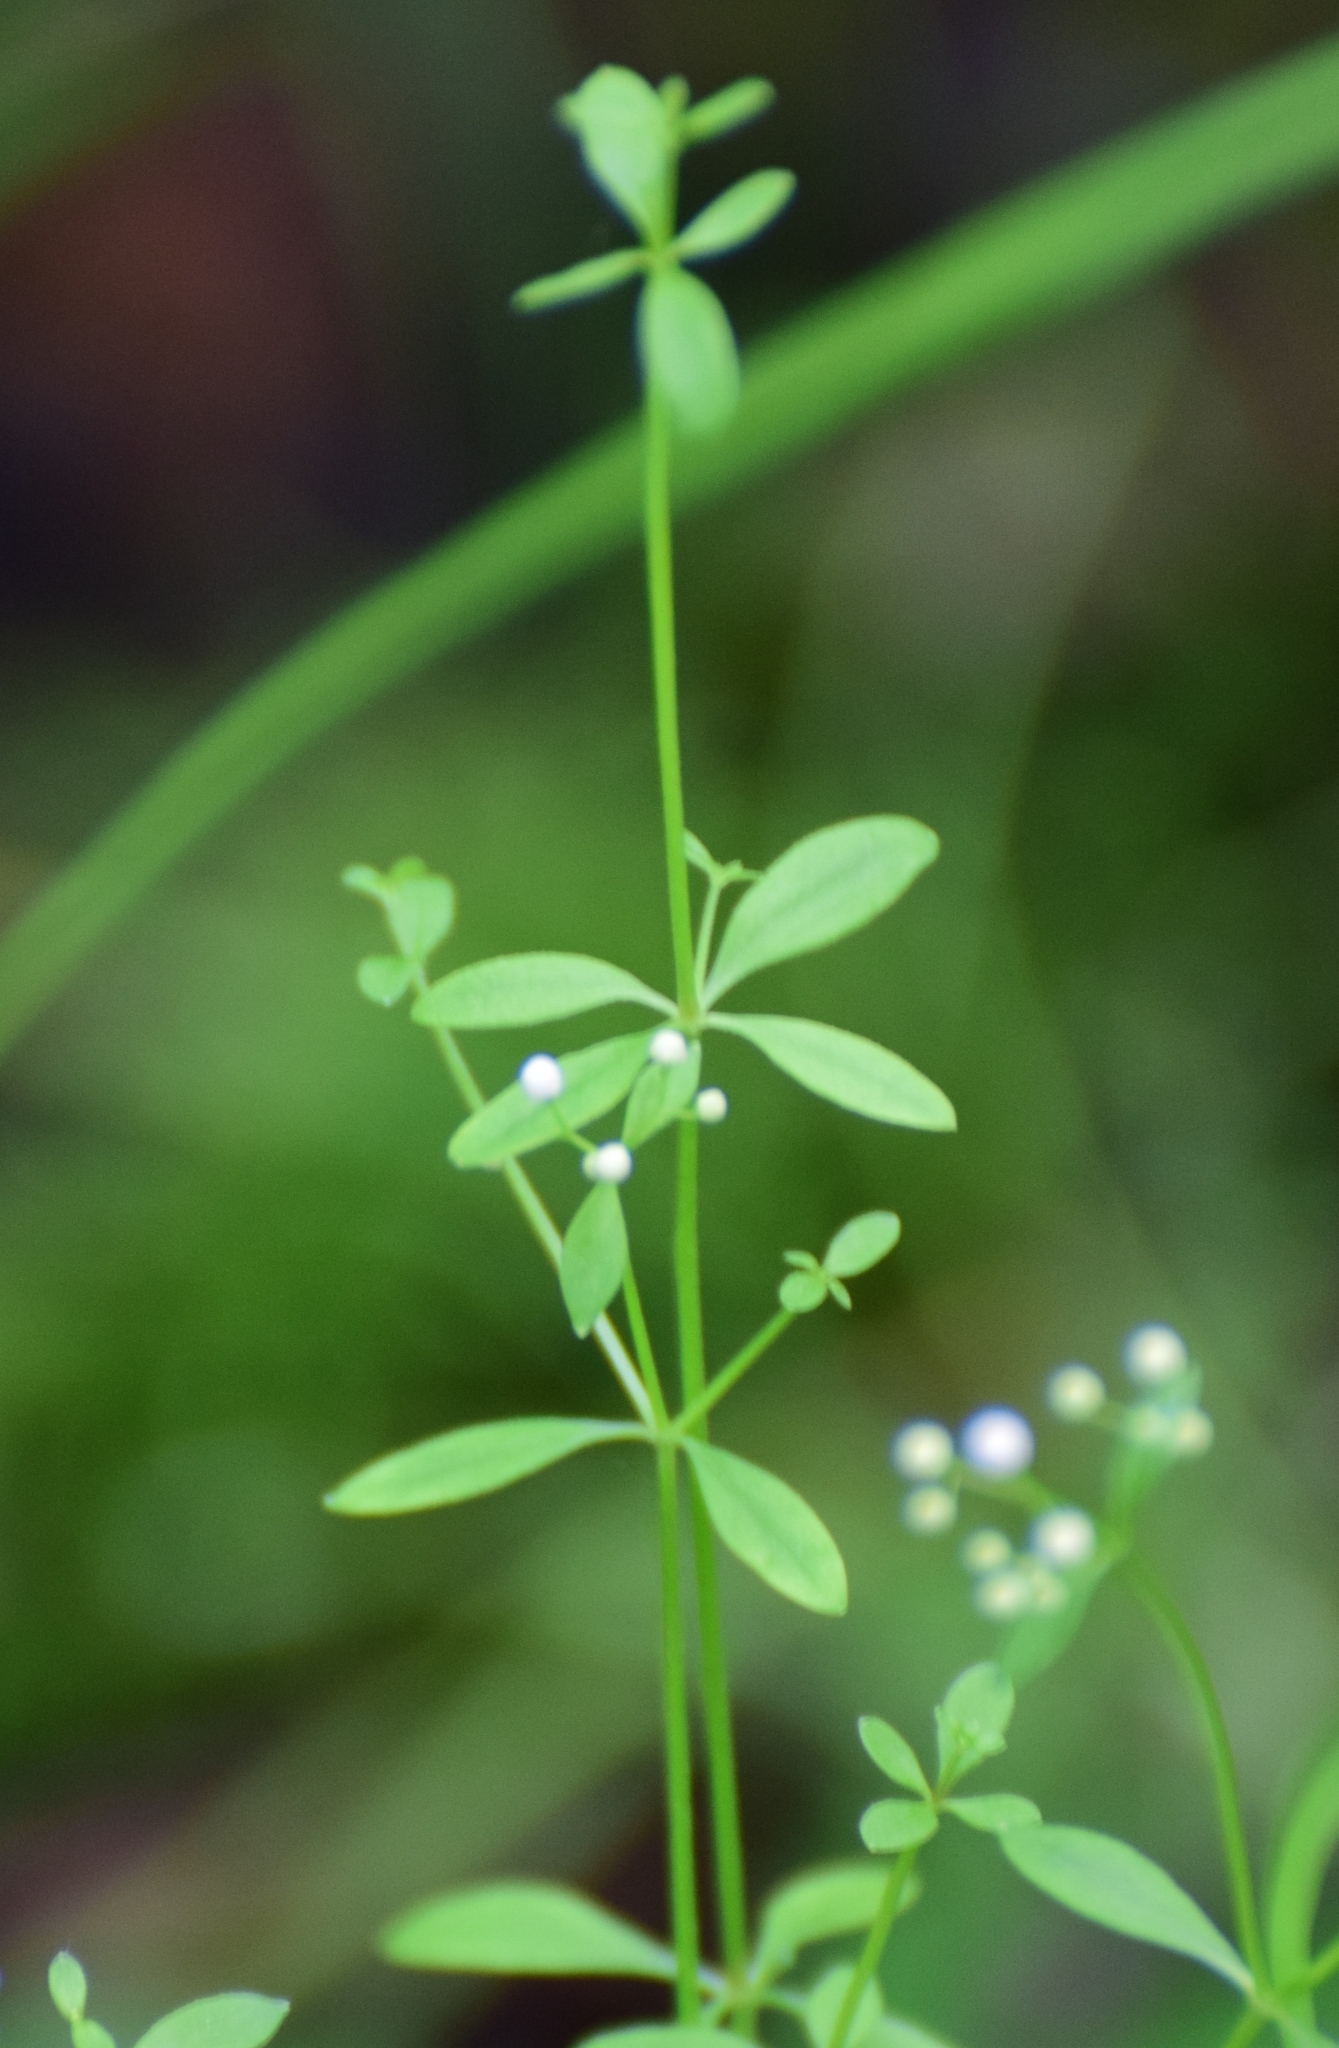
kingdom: Plantae
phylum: Tracheophyta
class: Magnoliopsida
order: Gentianales
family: Rubiaceae
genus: Galium
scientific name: Galium palustre
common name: Common marsh-bedstraw
